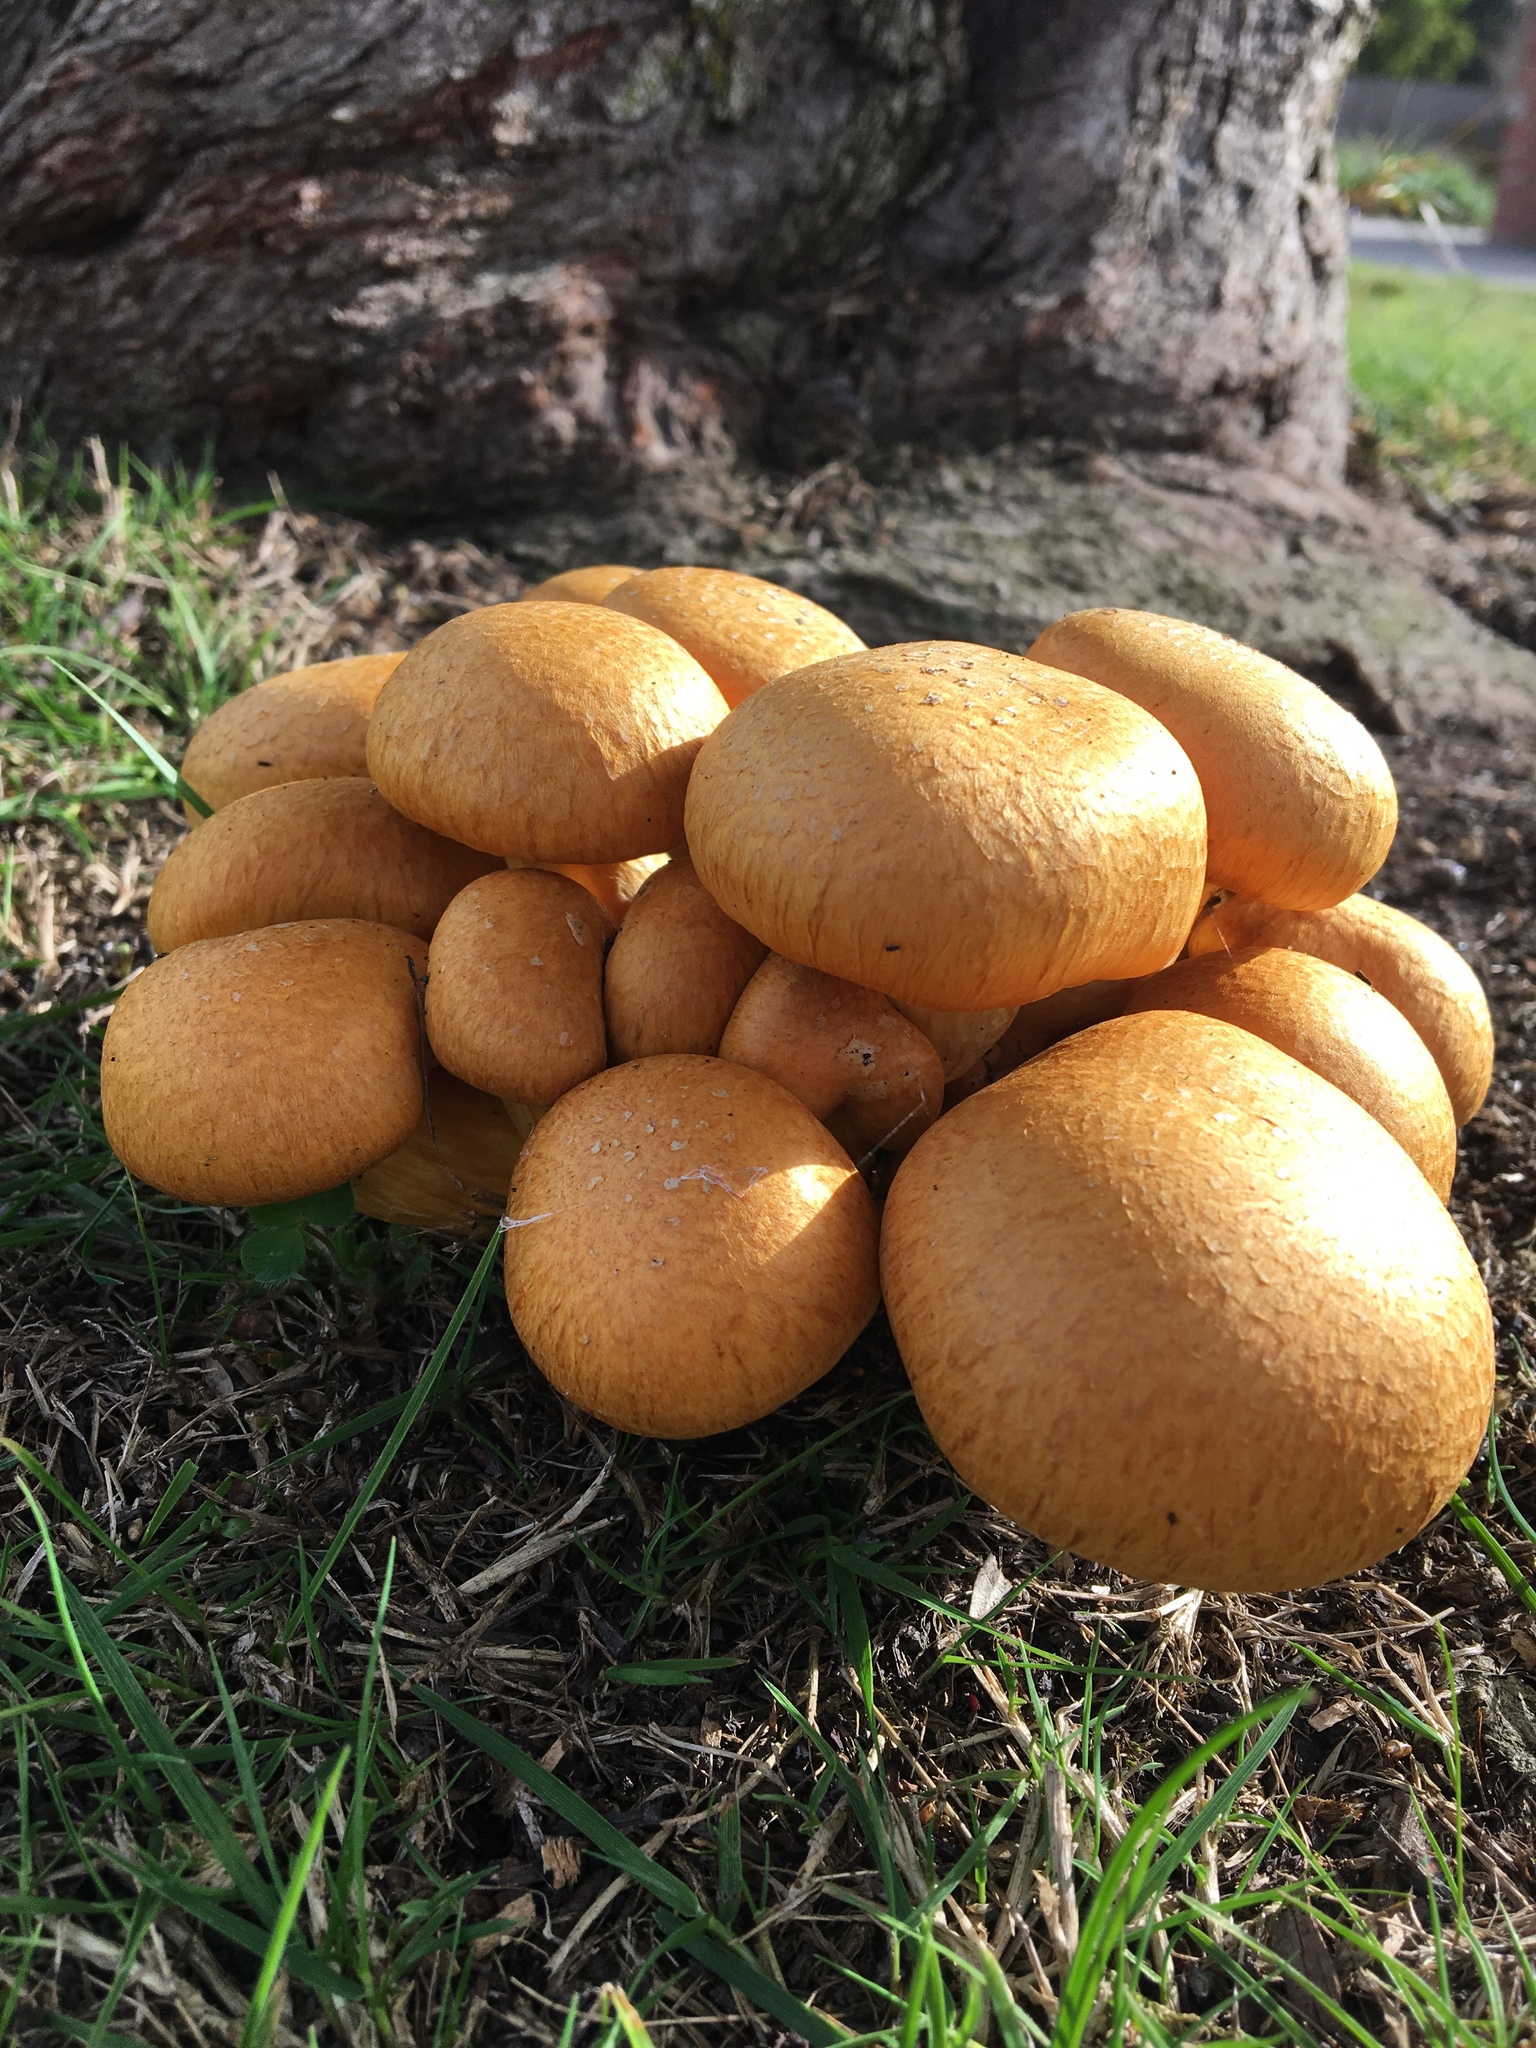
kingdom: Fungi
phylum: Basidiomycota
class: Agaricomycetes
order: Agaricales
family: Hymenogastraceae
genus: Gymnopilus
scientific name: Gymnopilus junonius
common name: Spectacular rustgill
